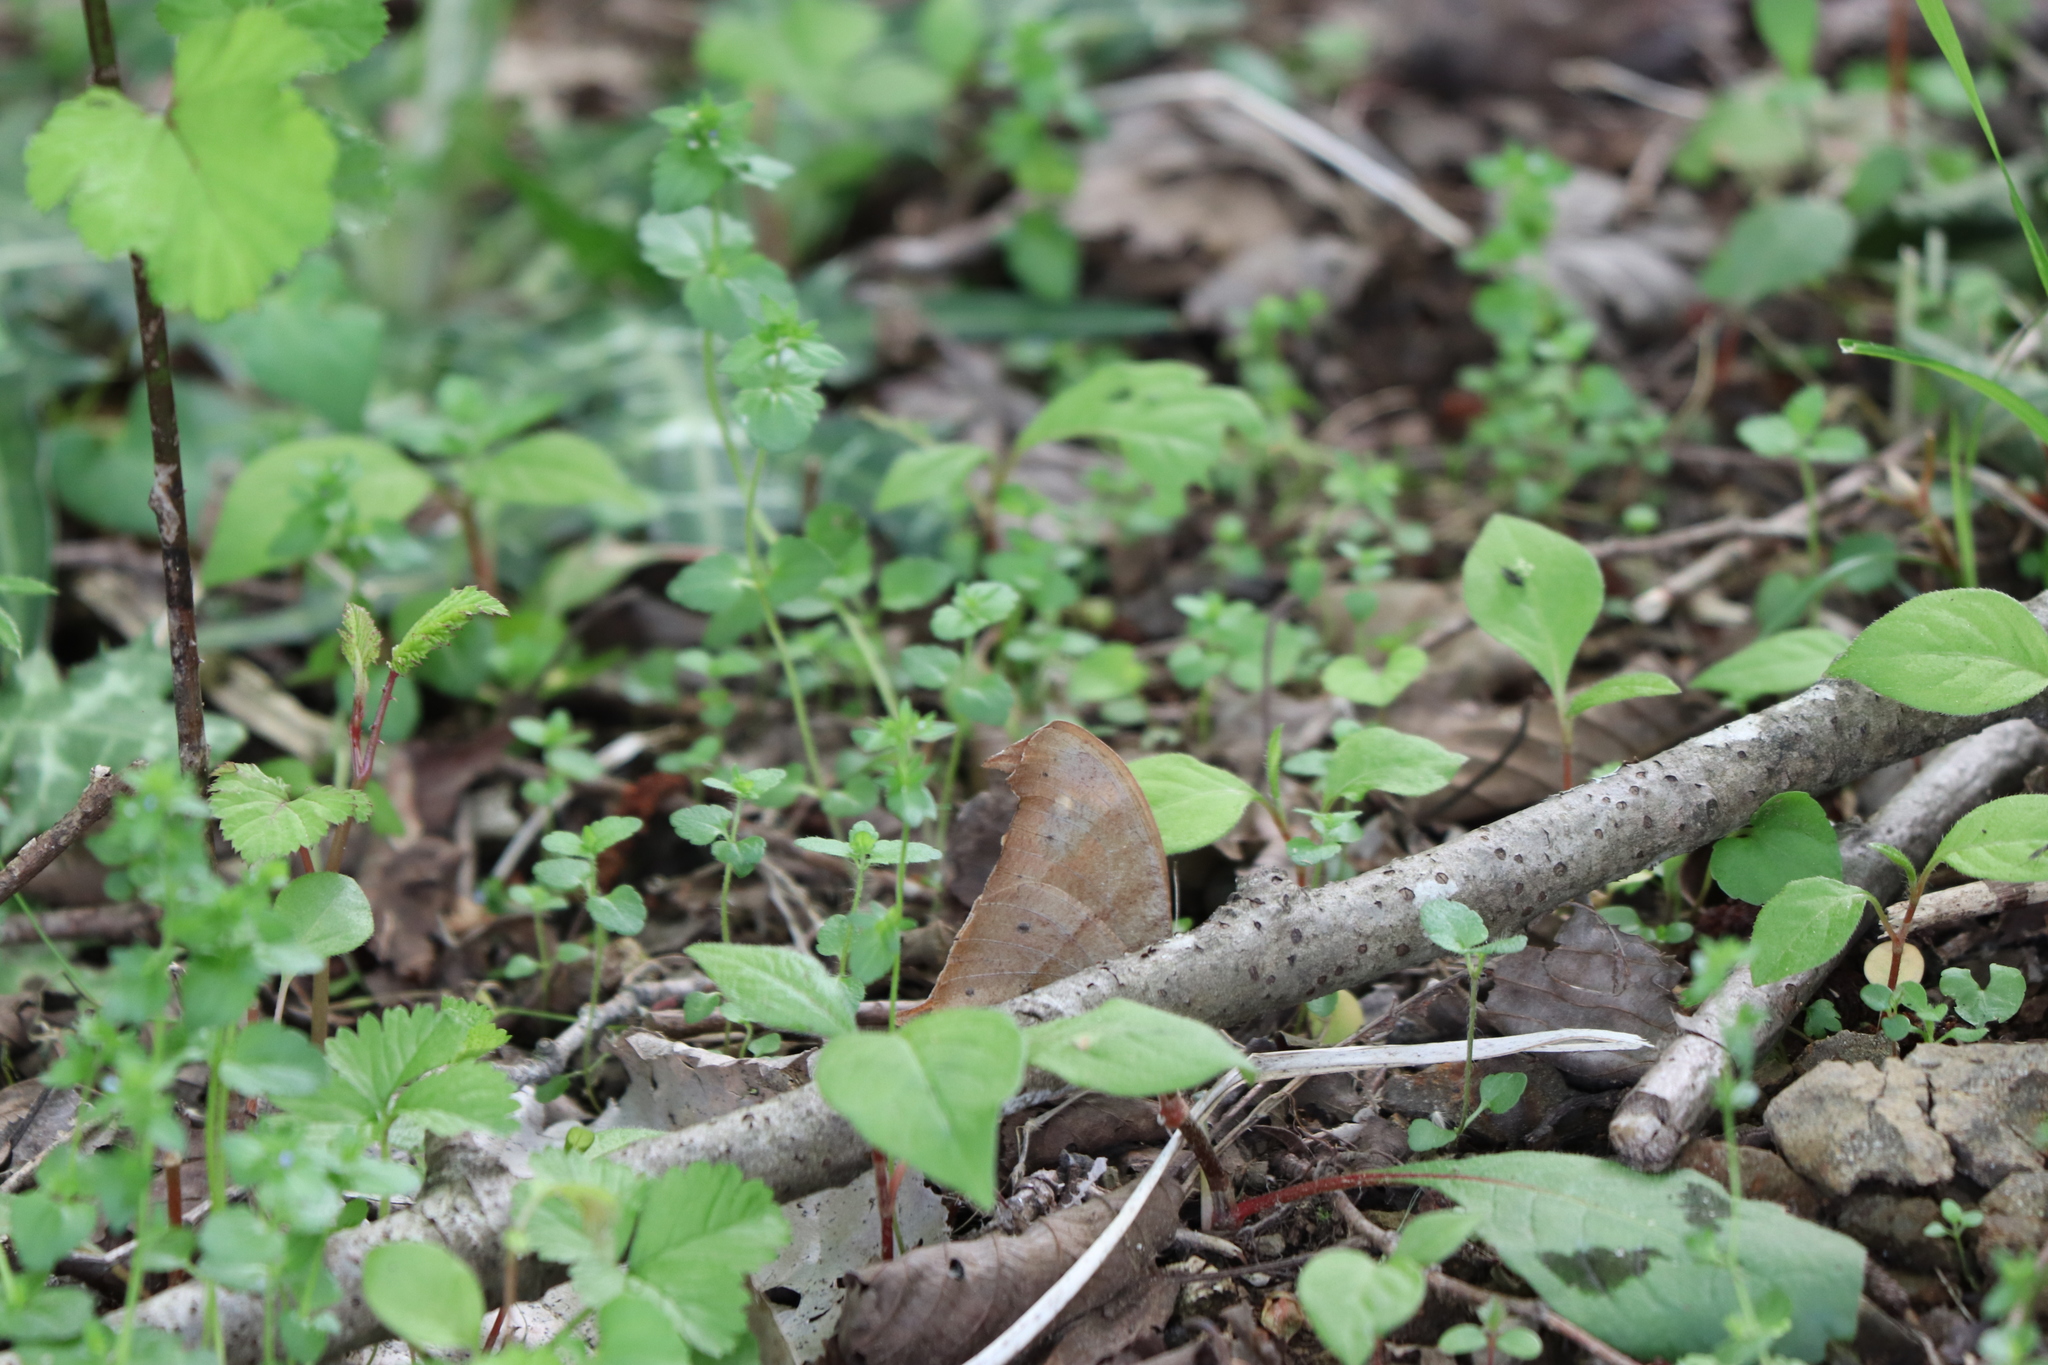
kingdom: Animalia
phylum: Arthropoda
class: Insecta
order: Lepidoptera
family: Nymphalidae
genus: Melanitis
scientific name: Melanitis phedima
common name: Dark evening brown
